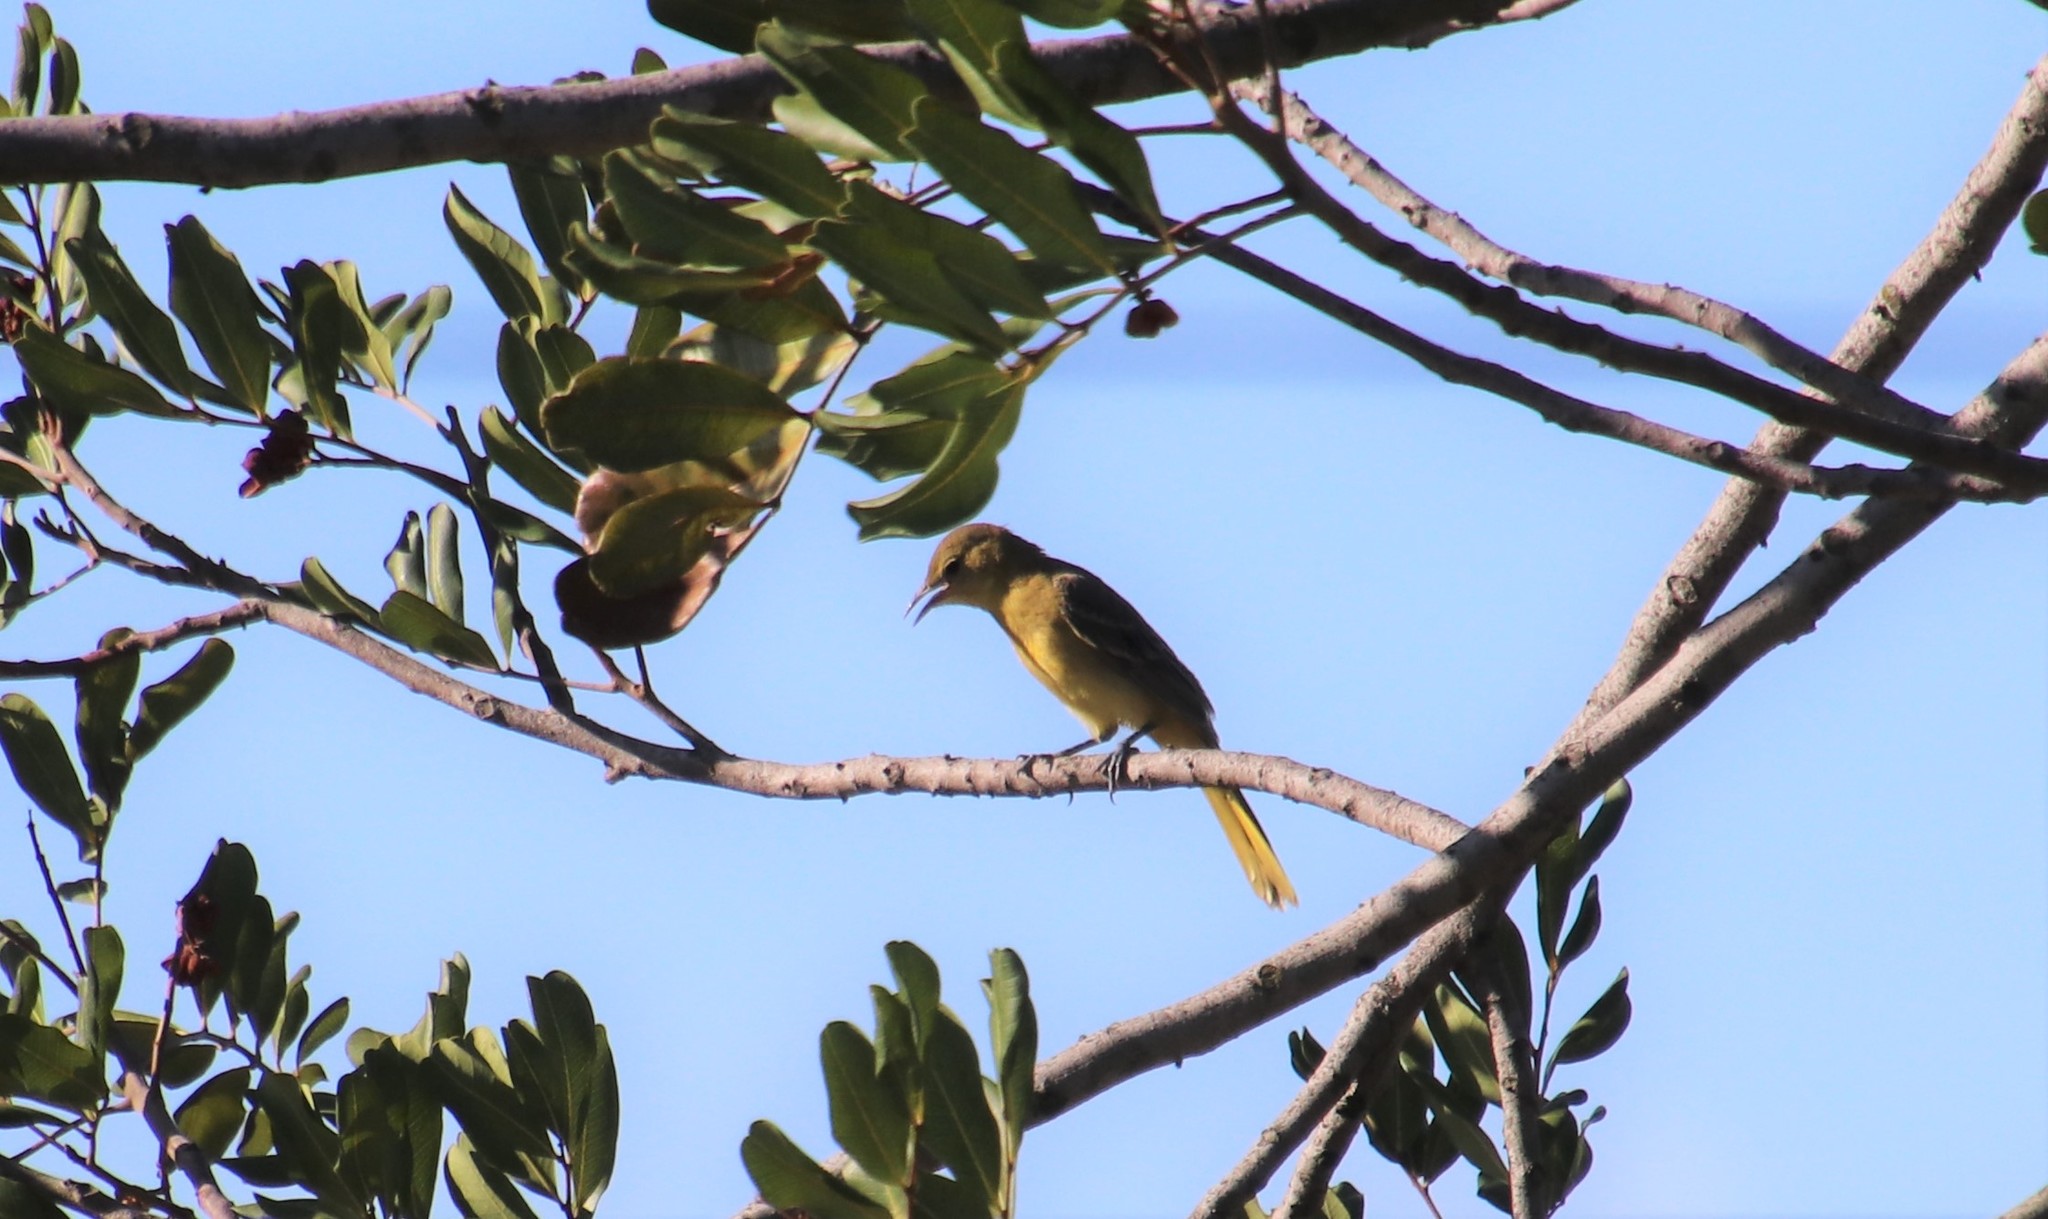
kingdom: Animalia
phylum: Chordata
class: Aves
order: Passeriformes
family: Icteridae
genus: Icterus
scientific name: Icterus cucullatus
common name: Hooded oriole
